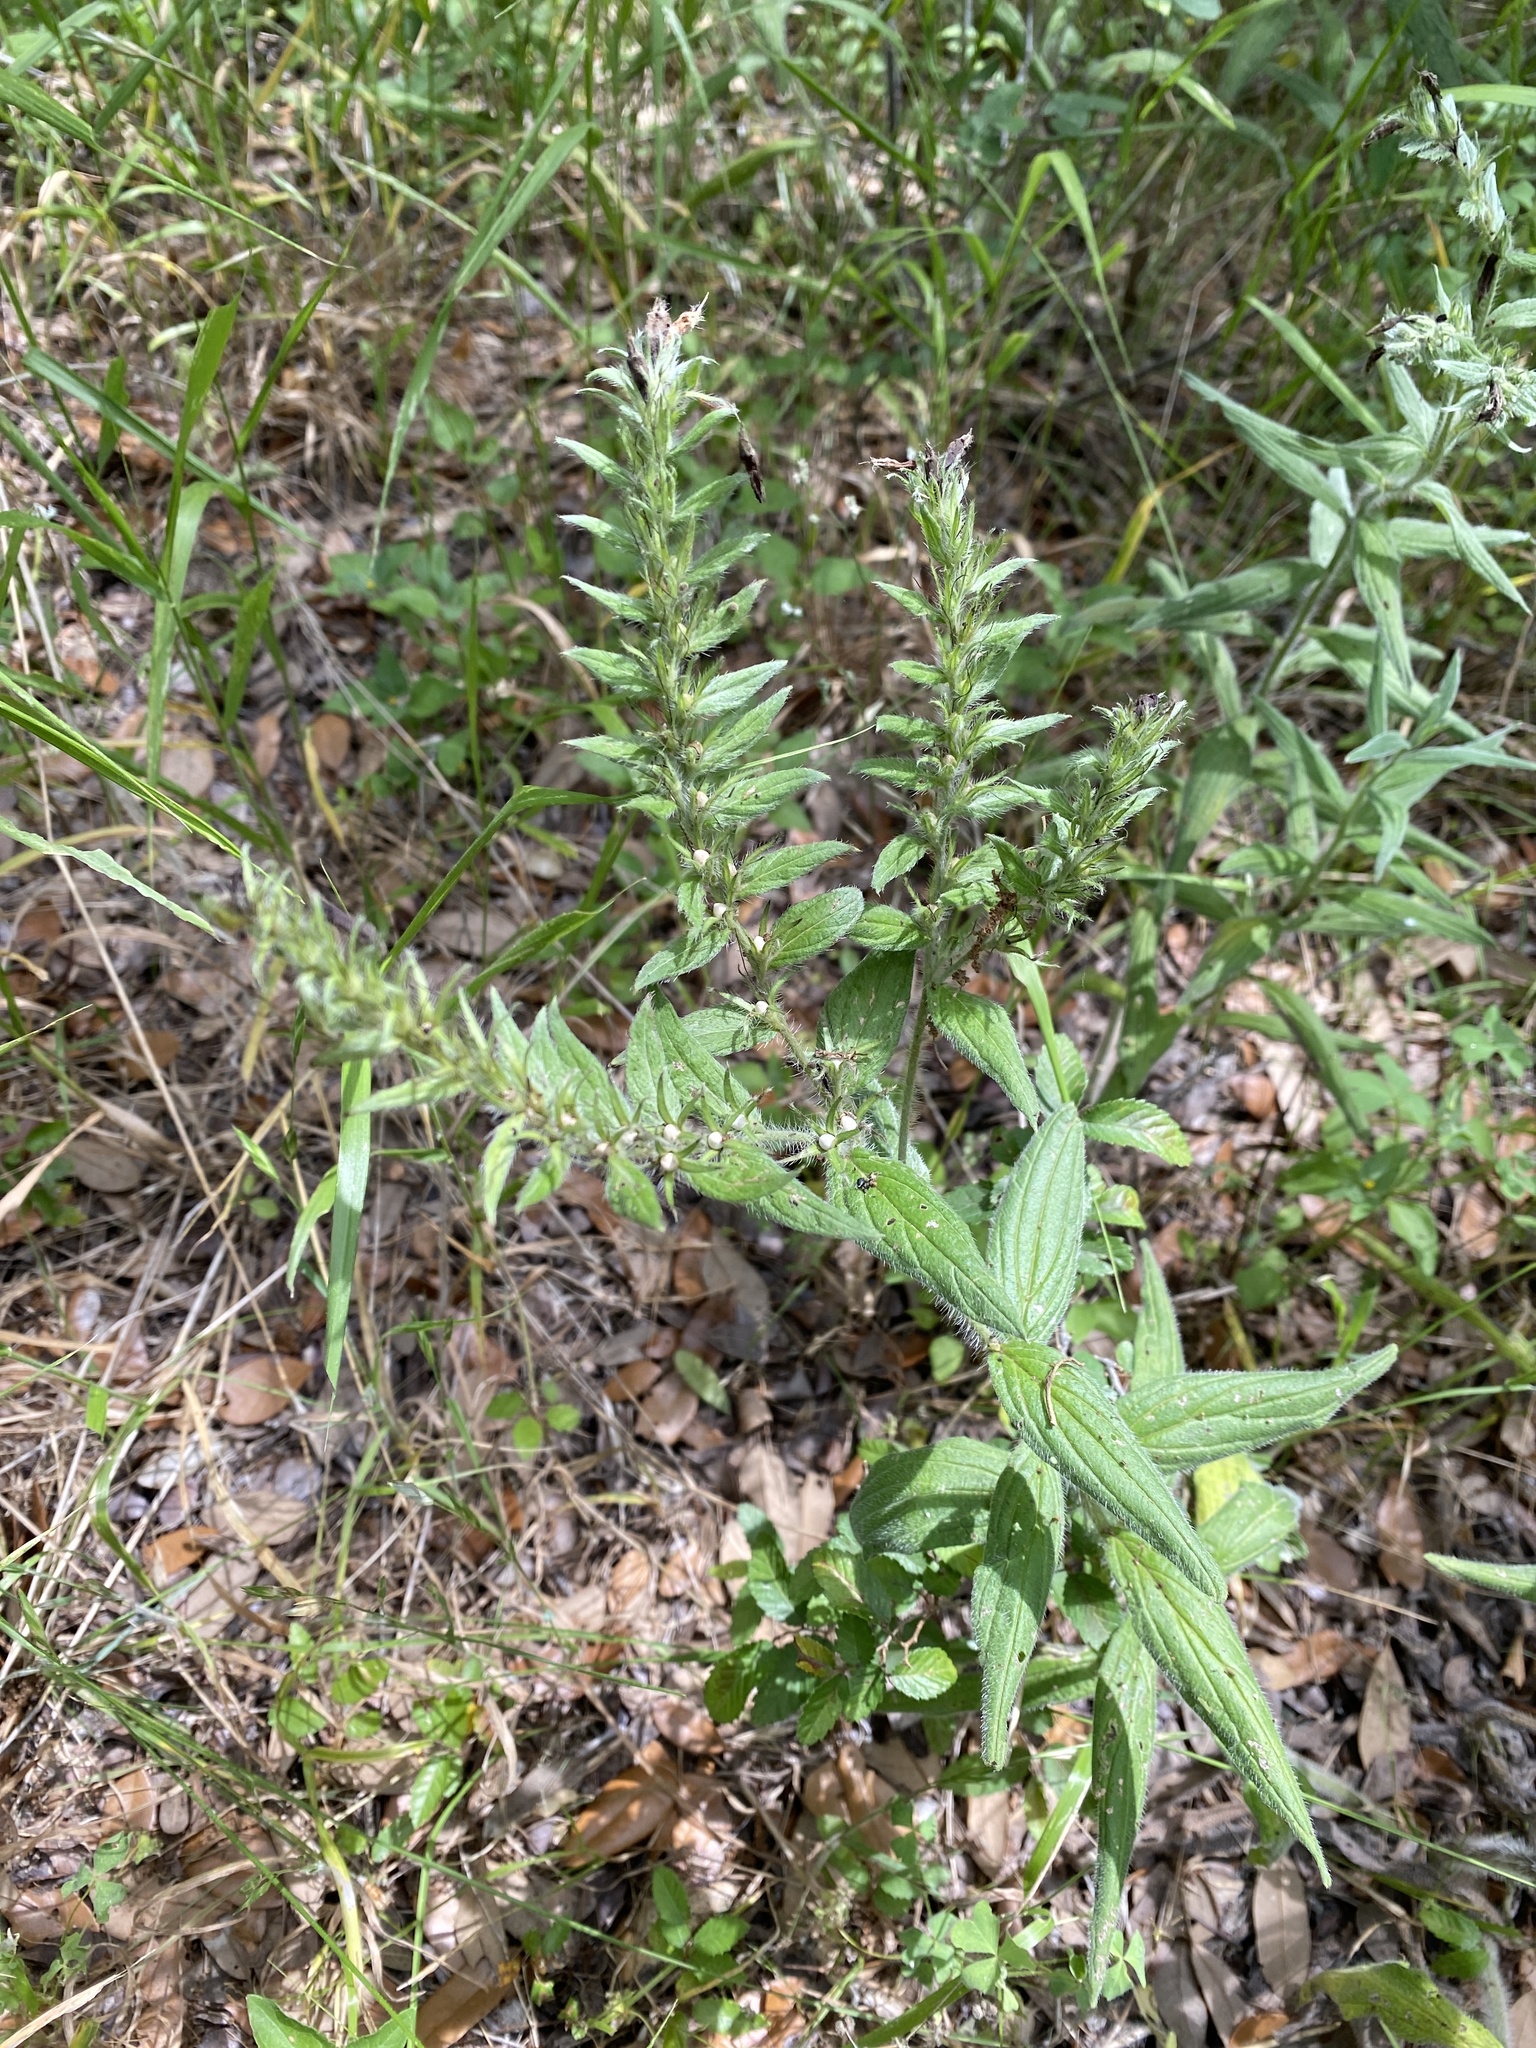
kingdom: Plantae
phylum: Tracheophyta
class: Magnoliopsida
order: Boraginales
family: Boraginaceae
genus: Lithospermum
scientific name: Lithospermum caroliniense
